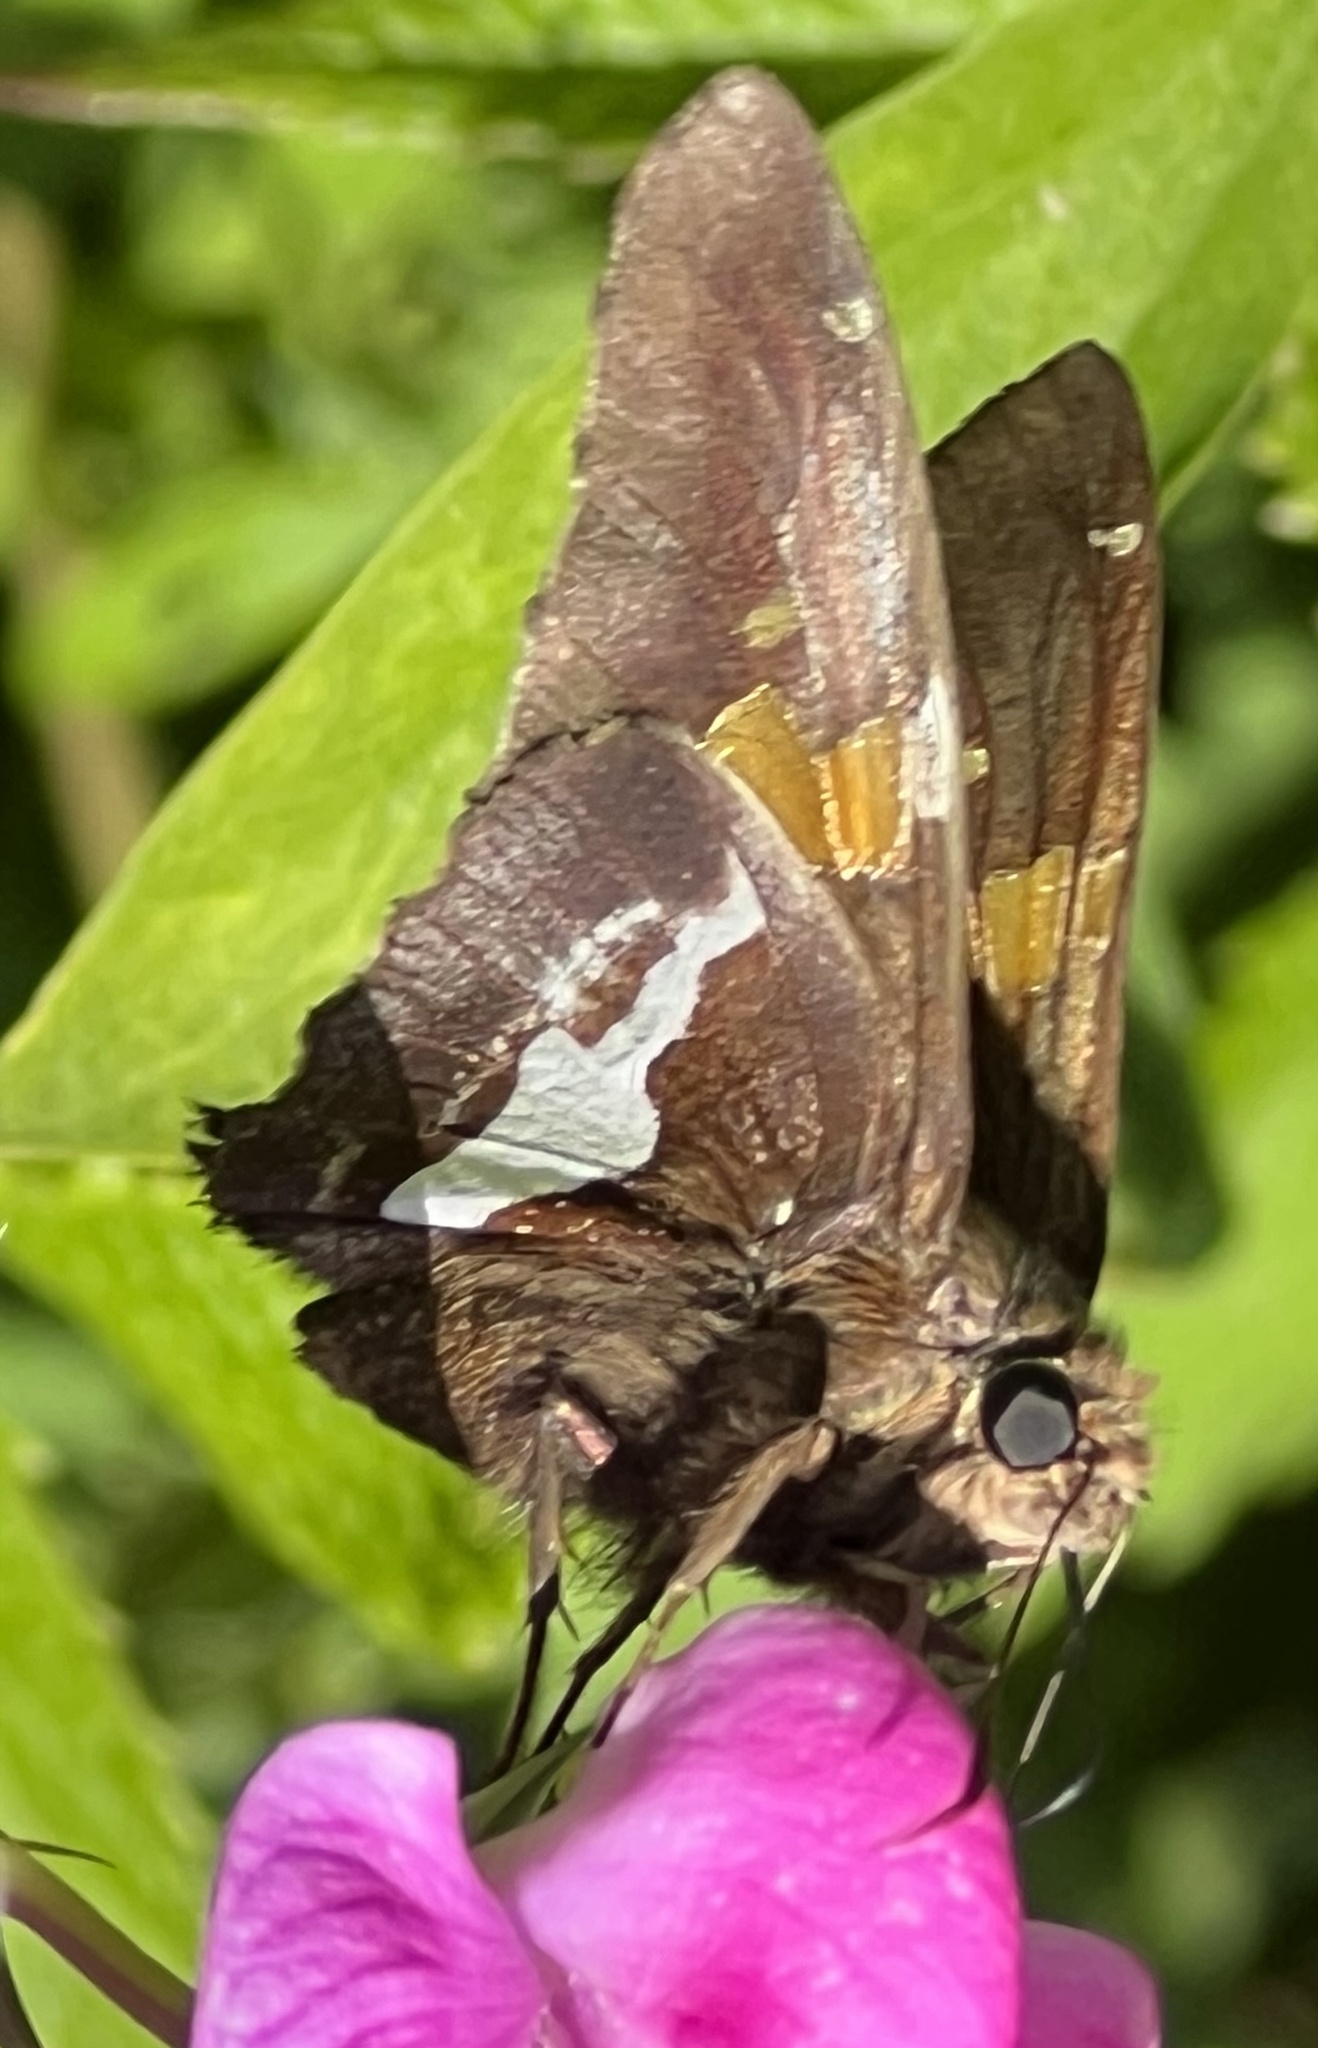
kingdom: Animalia
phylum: Arthropoda
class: Insecta
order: Lepidoptera
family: Hesperiidae
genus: Epargyreus
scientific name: Epargyreus clarus
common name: Silver-spotted skipper
